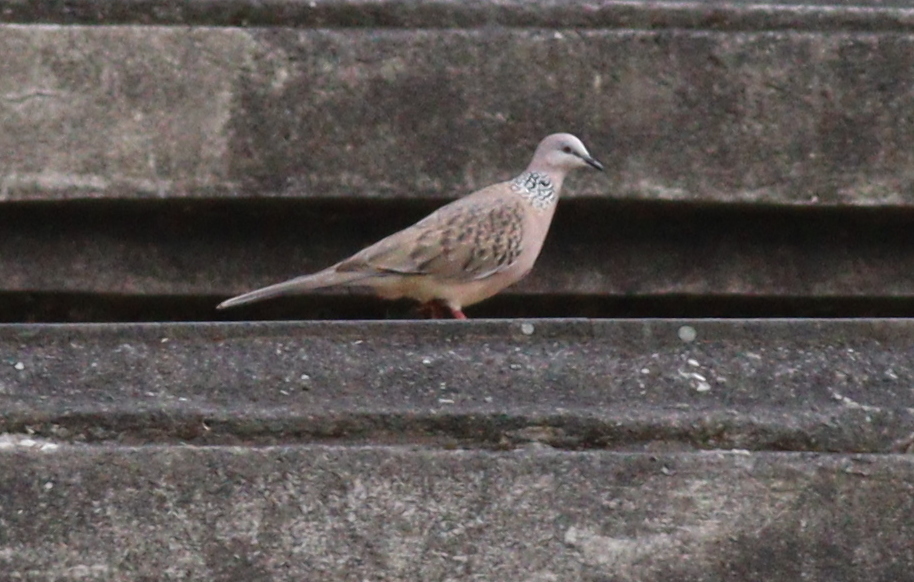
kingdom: Animalia
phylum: Chordata
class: Aves
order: Columbiformes
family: Columbidae
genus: Spilopelia
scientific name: Spilopelia chinensis
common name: Spotted dove
